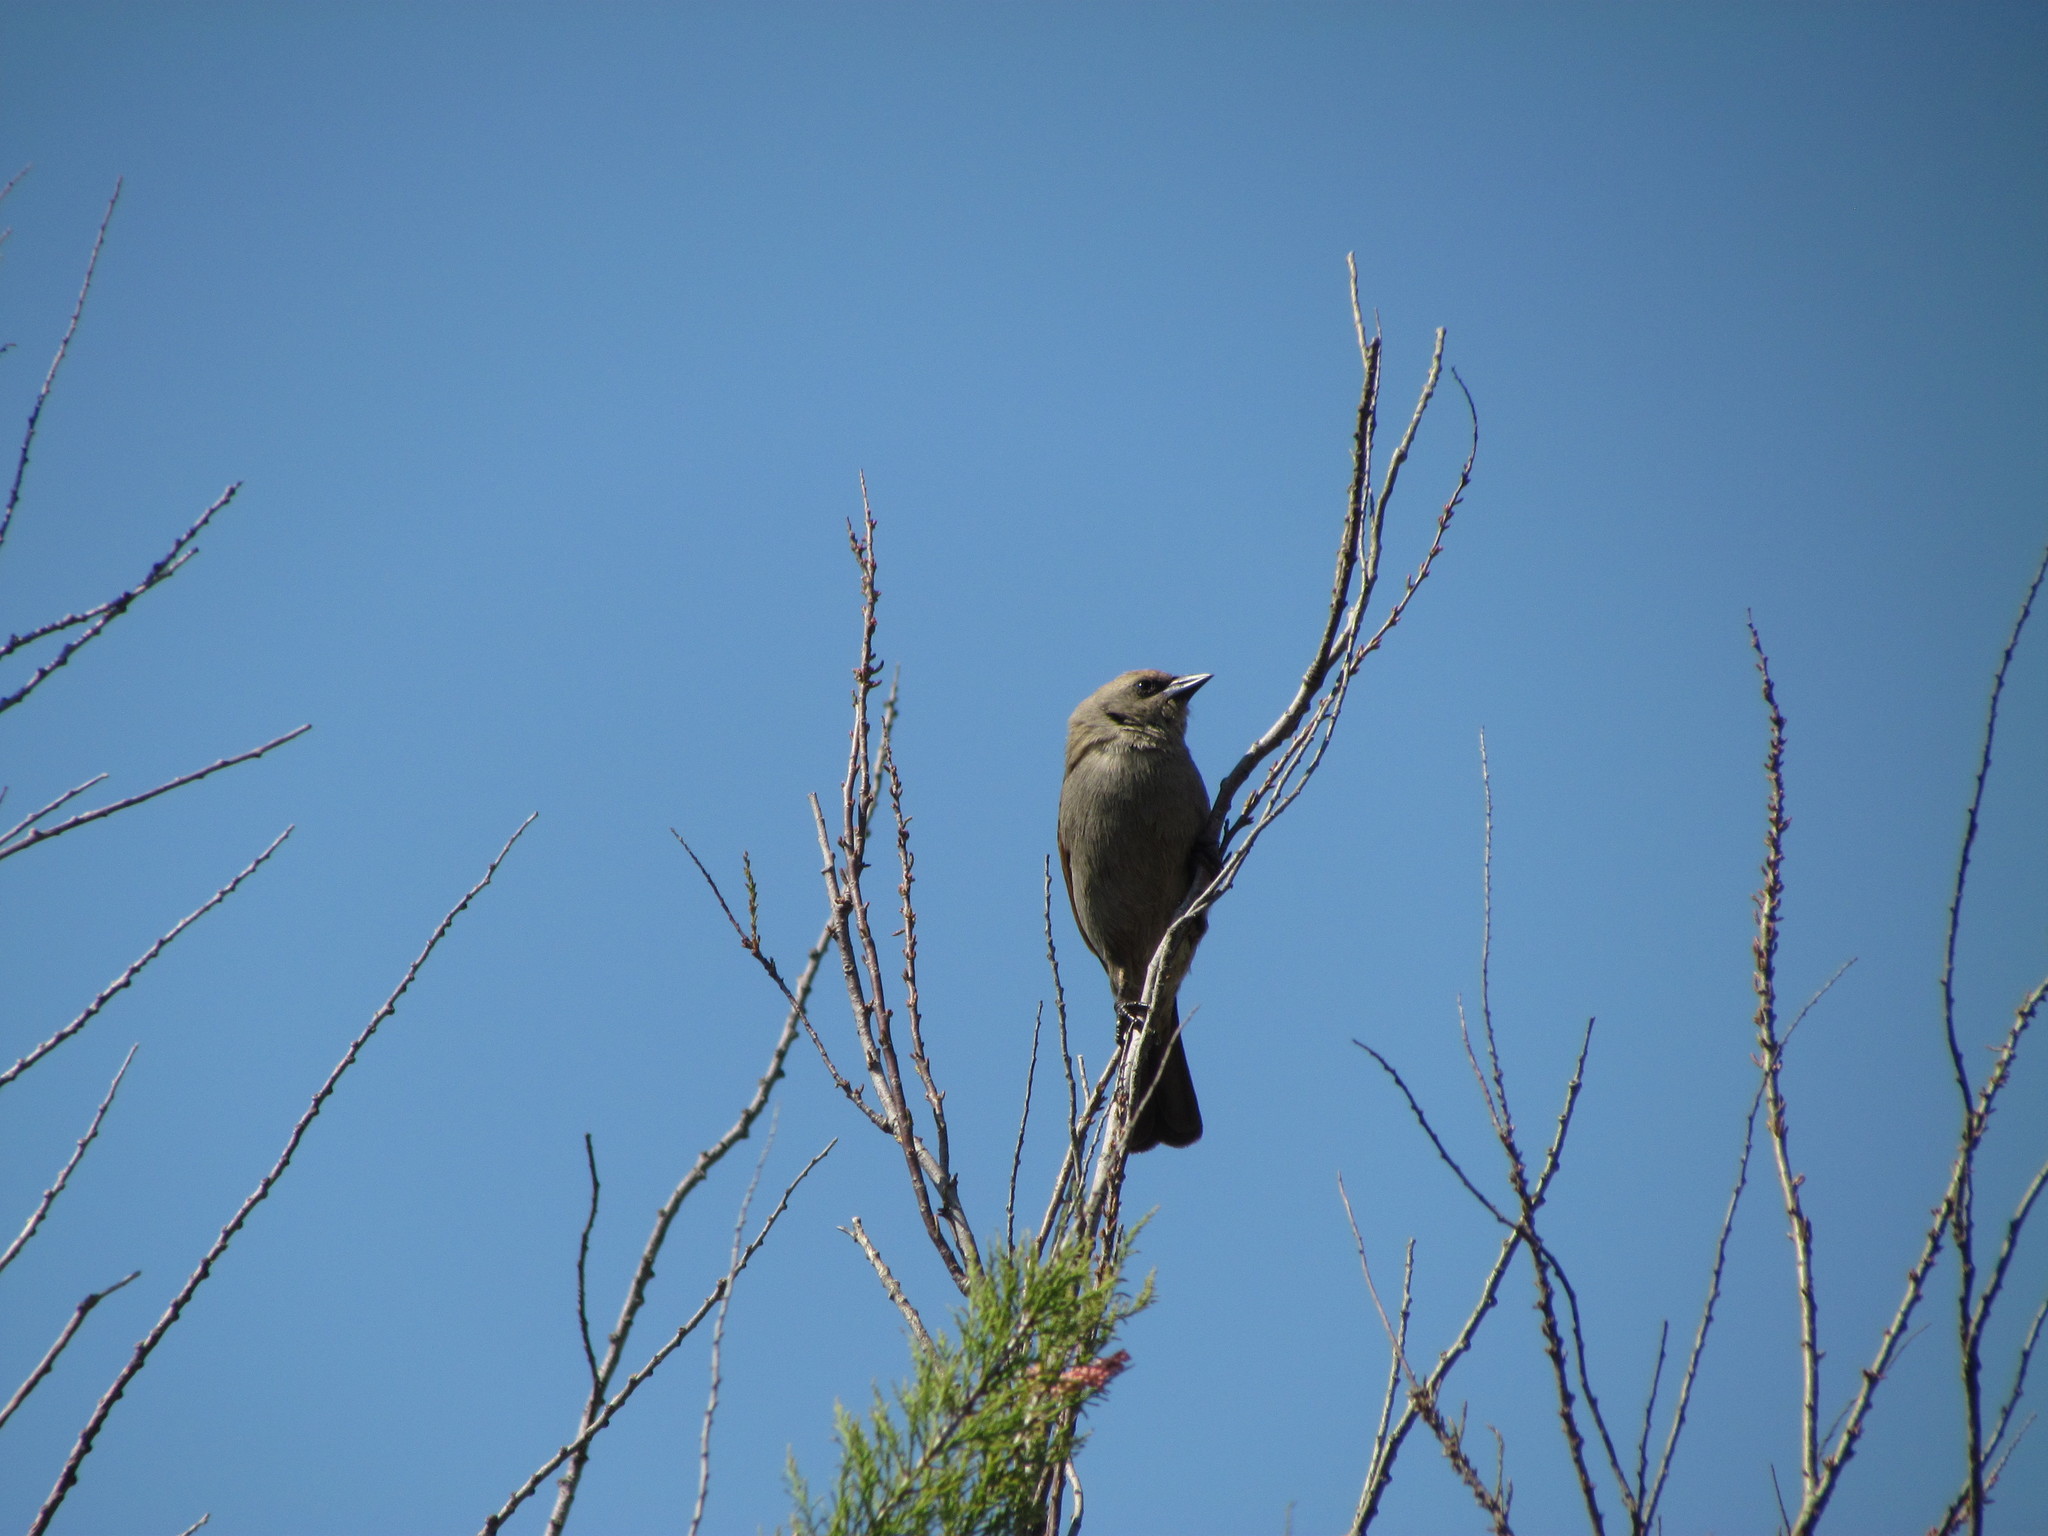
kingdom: Animalia
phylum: Chordata
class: Aves
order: Passeriformes
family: Icteridae
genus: Agelaioides
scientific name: Agelaioides badius
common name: Baywing
